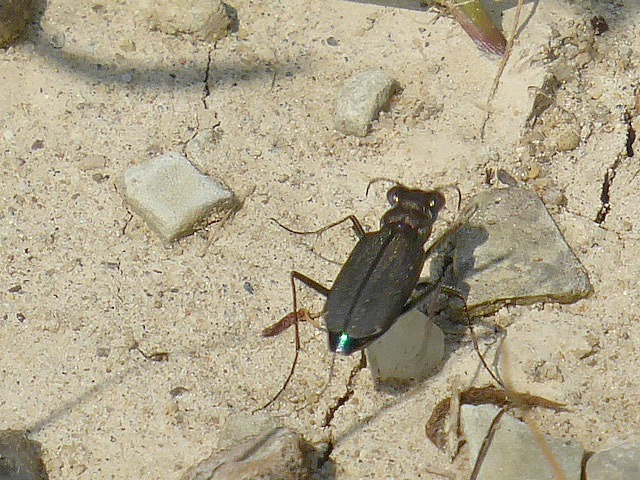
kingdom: Animalia
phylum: Arthropoda
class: Insecta
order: Coleoptera
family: Carabidae
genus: Cicindela
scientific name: Cicindela punctulata
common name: Punctured tiger beetle
